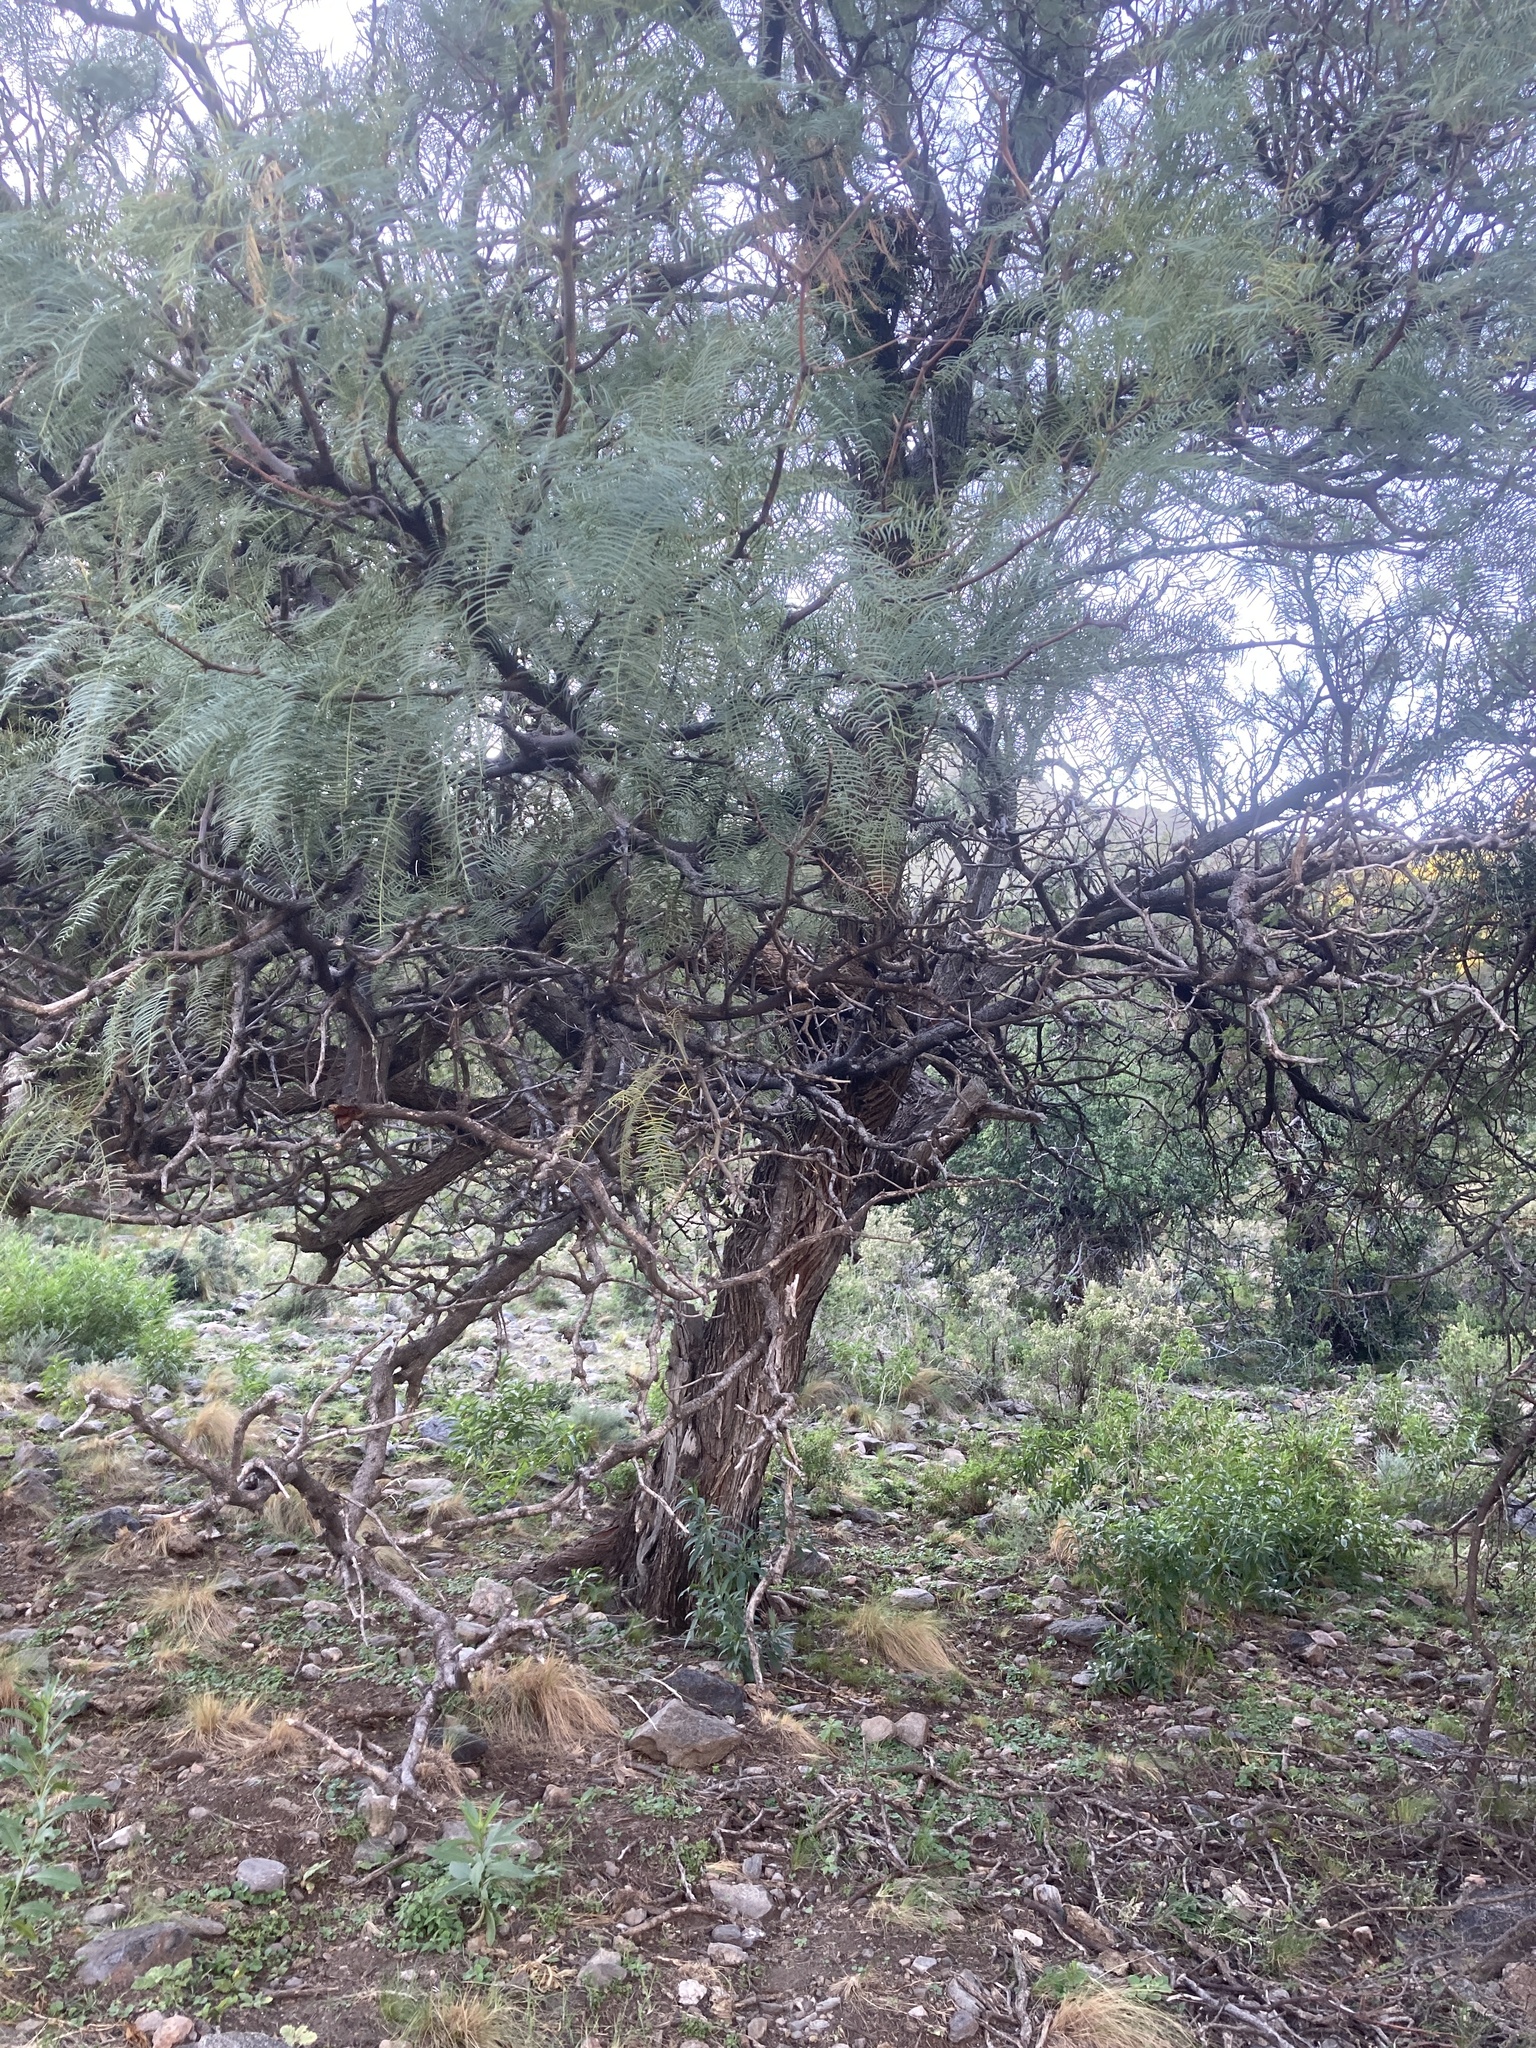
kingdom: Plantae
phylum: Tracheophyta
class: Magnoliopsida
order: Fabales
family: Fabaceae
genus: Prosopis
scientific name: Prosopis chilensis
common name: Chilean algarrobo
